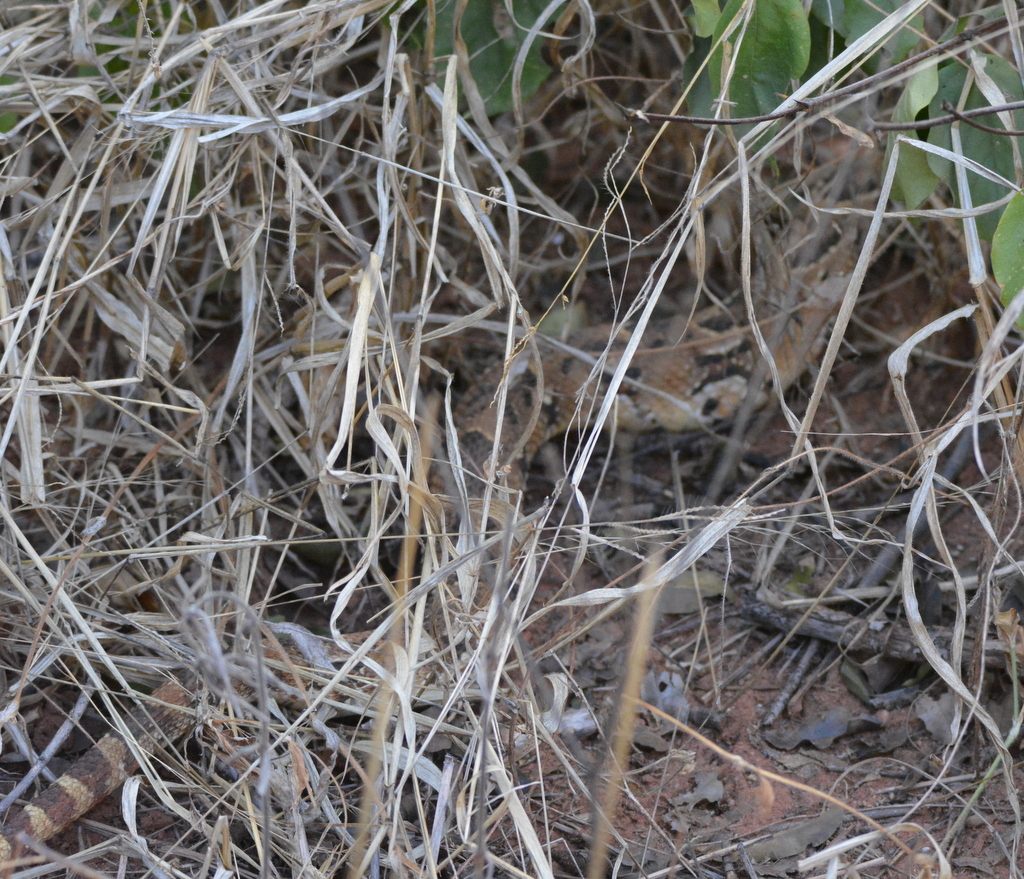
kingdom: Animalia
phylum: Chordata
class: Squamata
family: Viperidae
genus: Bitis
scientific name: Bitis arietans
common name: Puff adder
